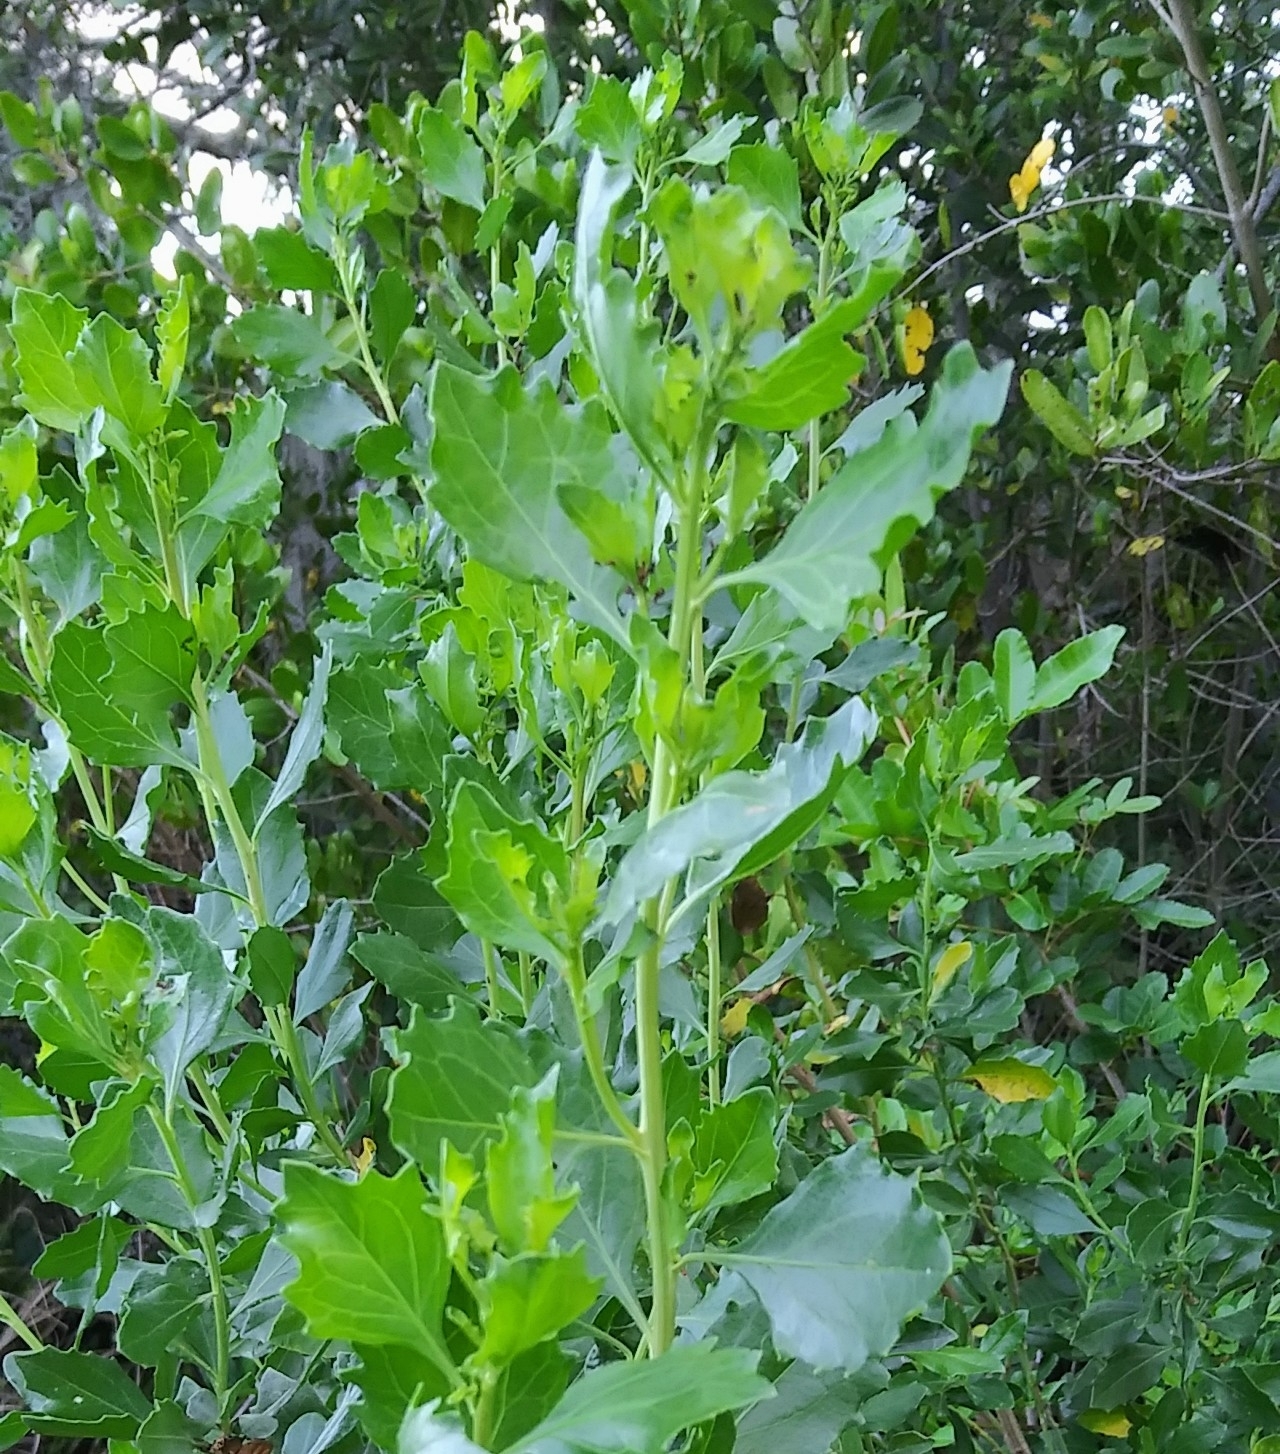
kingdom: Plantae
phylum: Tracheophyta
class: Magnoliopsida
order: Asterales
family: Asteraceae
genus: Baccharis
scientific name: Baccharis halimifolia
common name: Eastern baccharis
